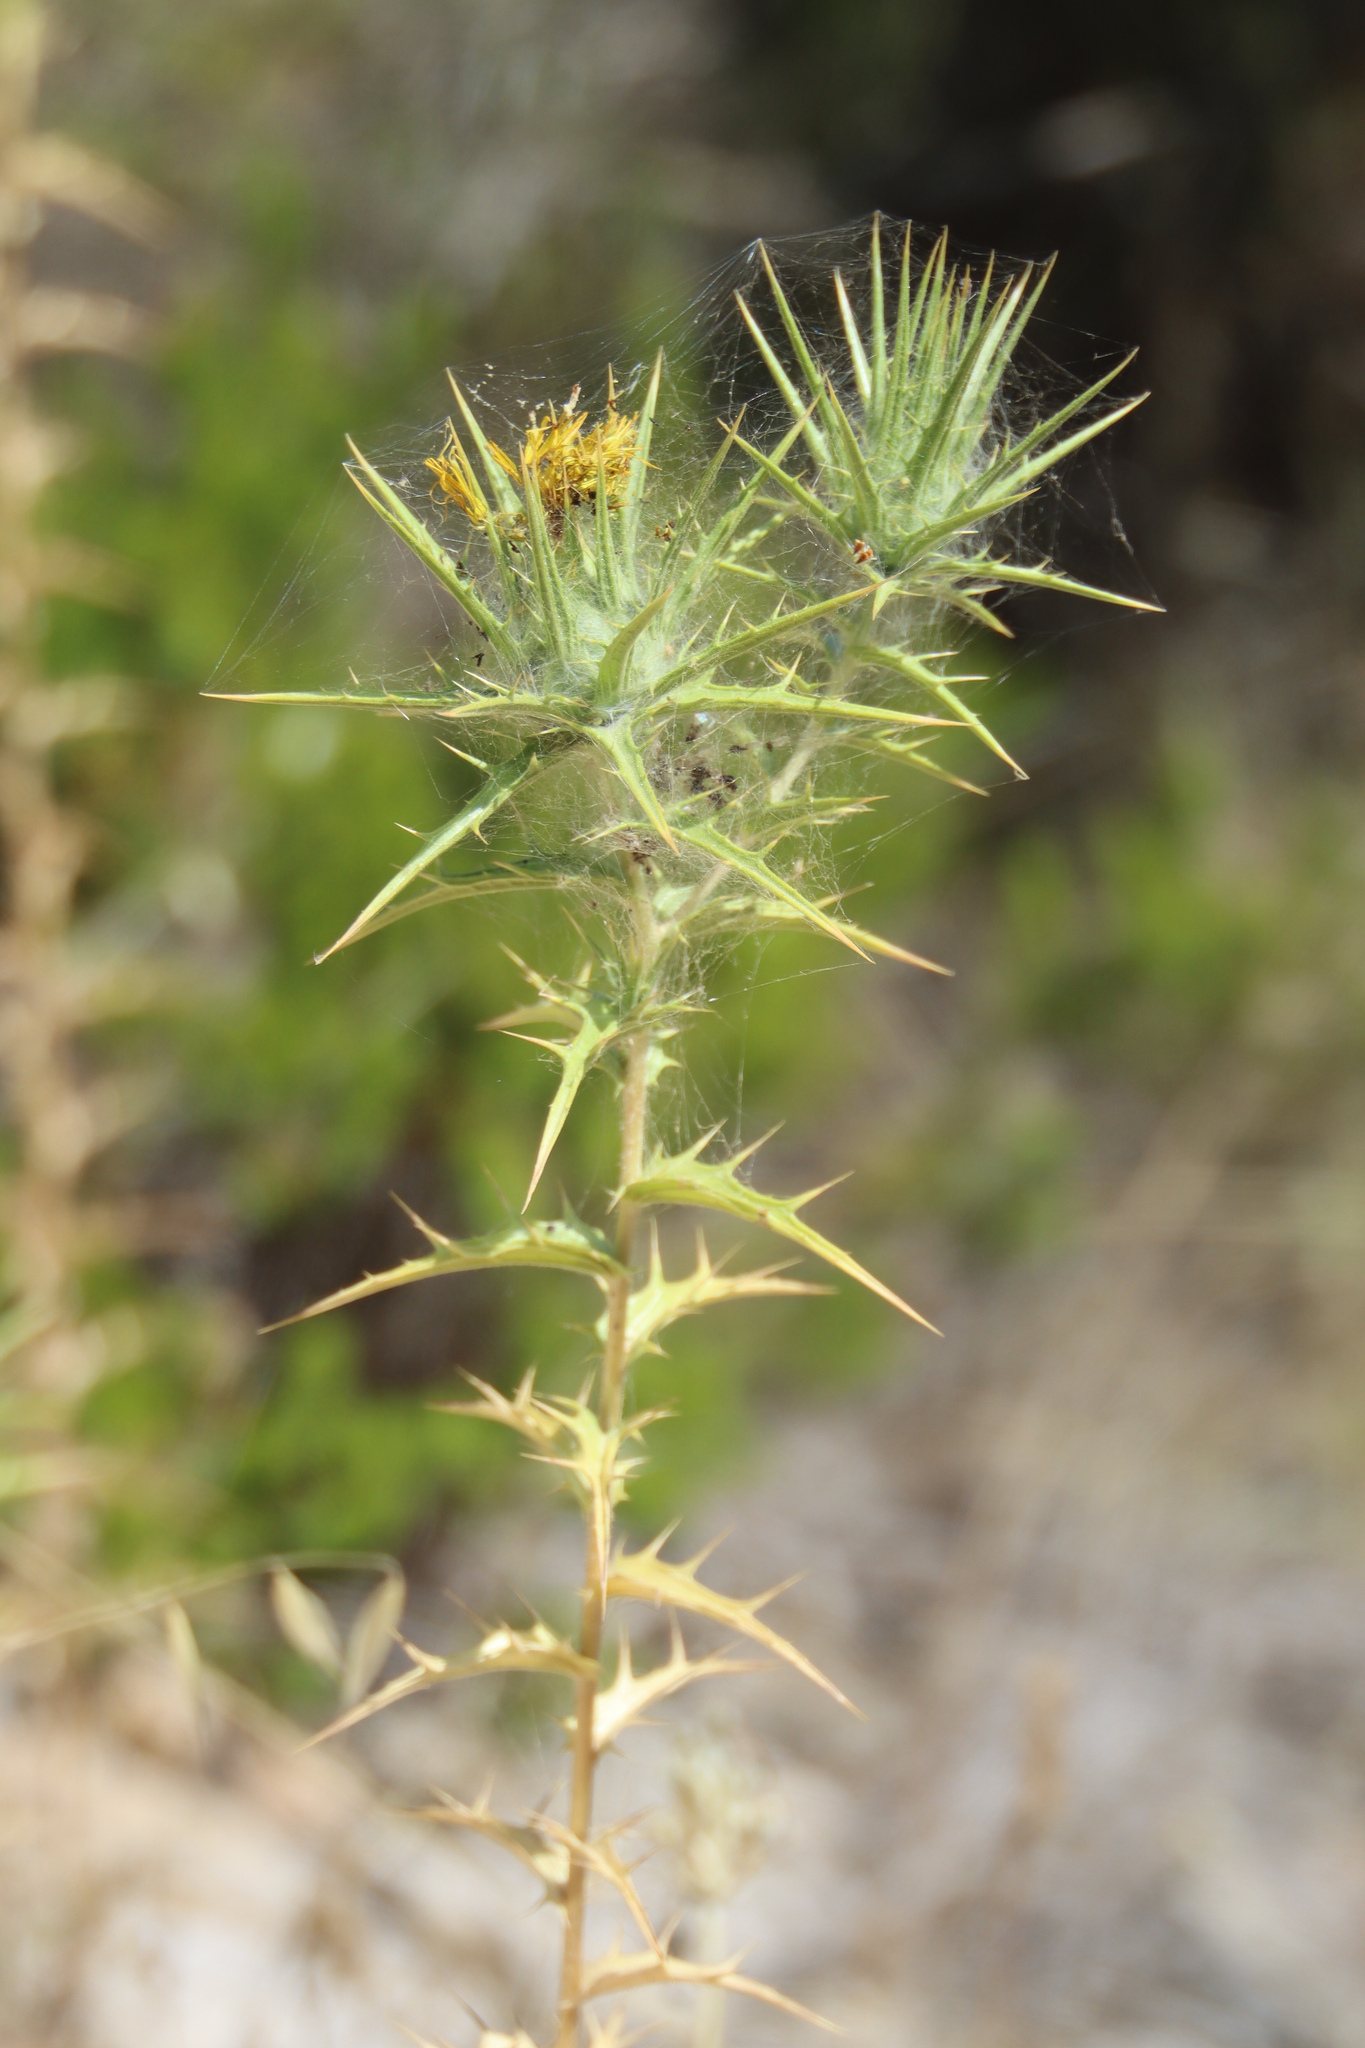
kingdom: Plantae
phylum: Tracheophyta
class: Magnoliopsida
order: Asterales
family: Asteraceae
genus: Carthamus
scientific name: Carthamus lanatus
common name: Downy safflower
